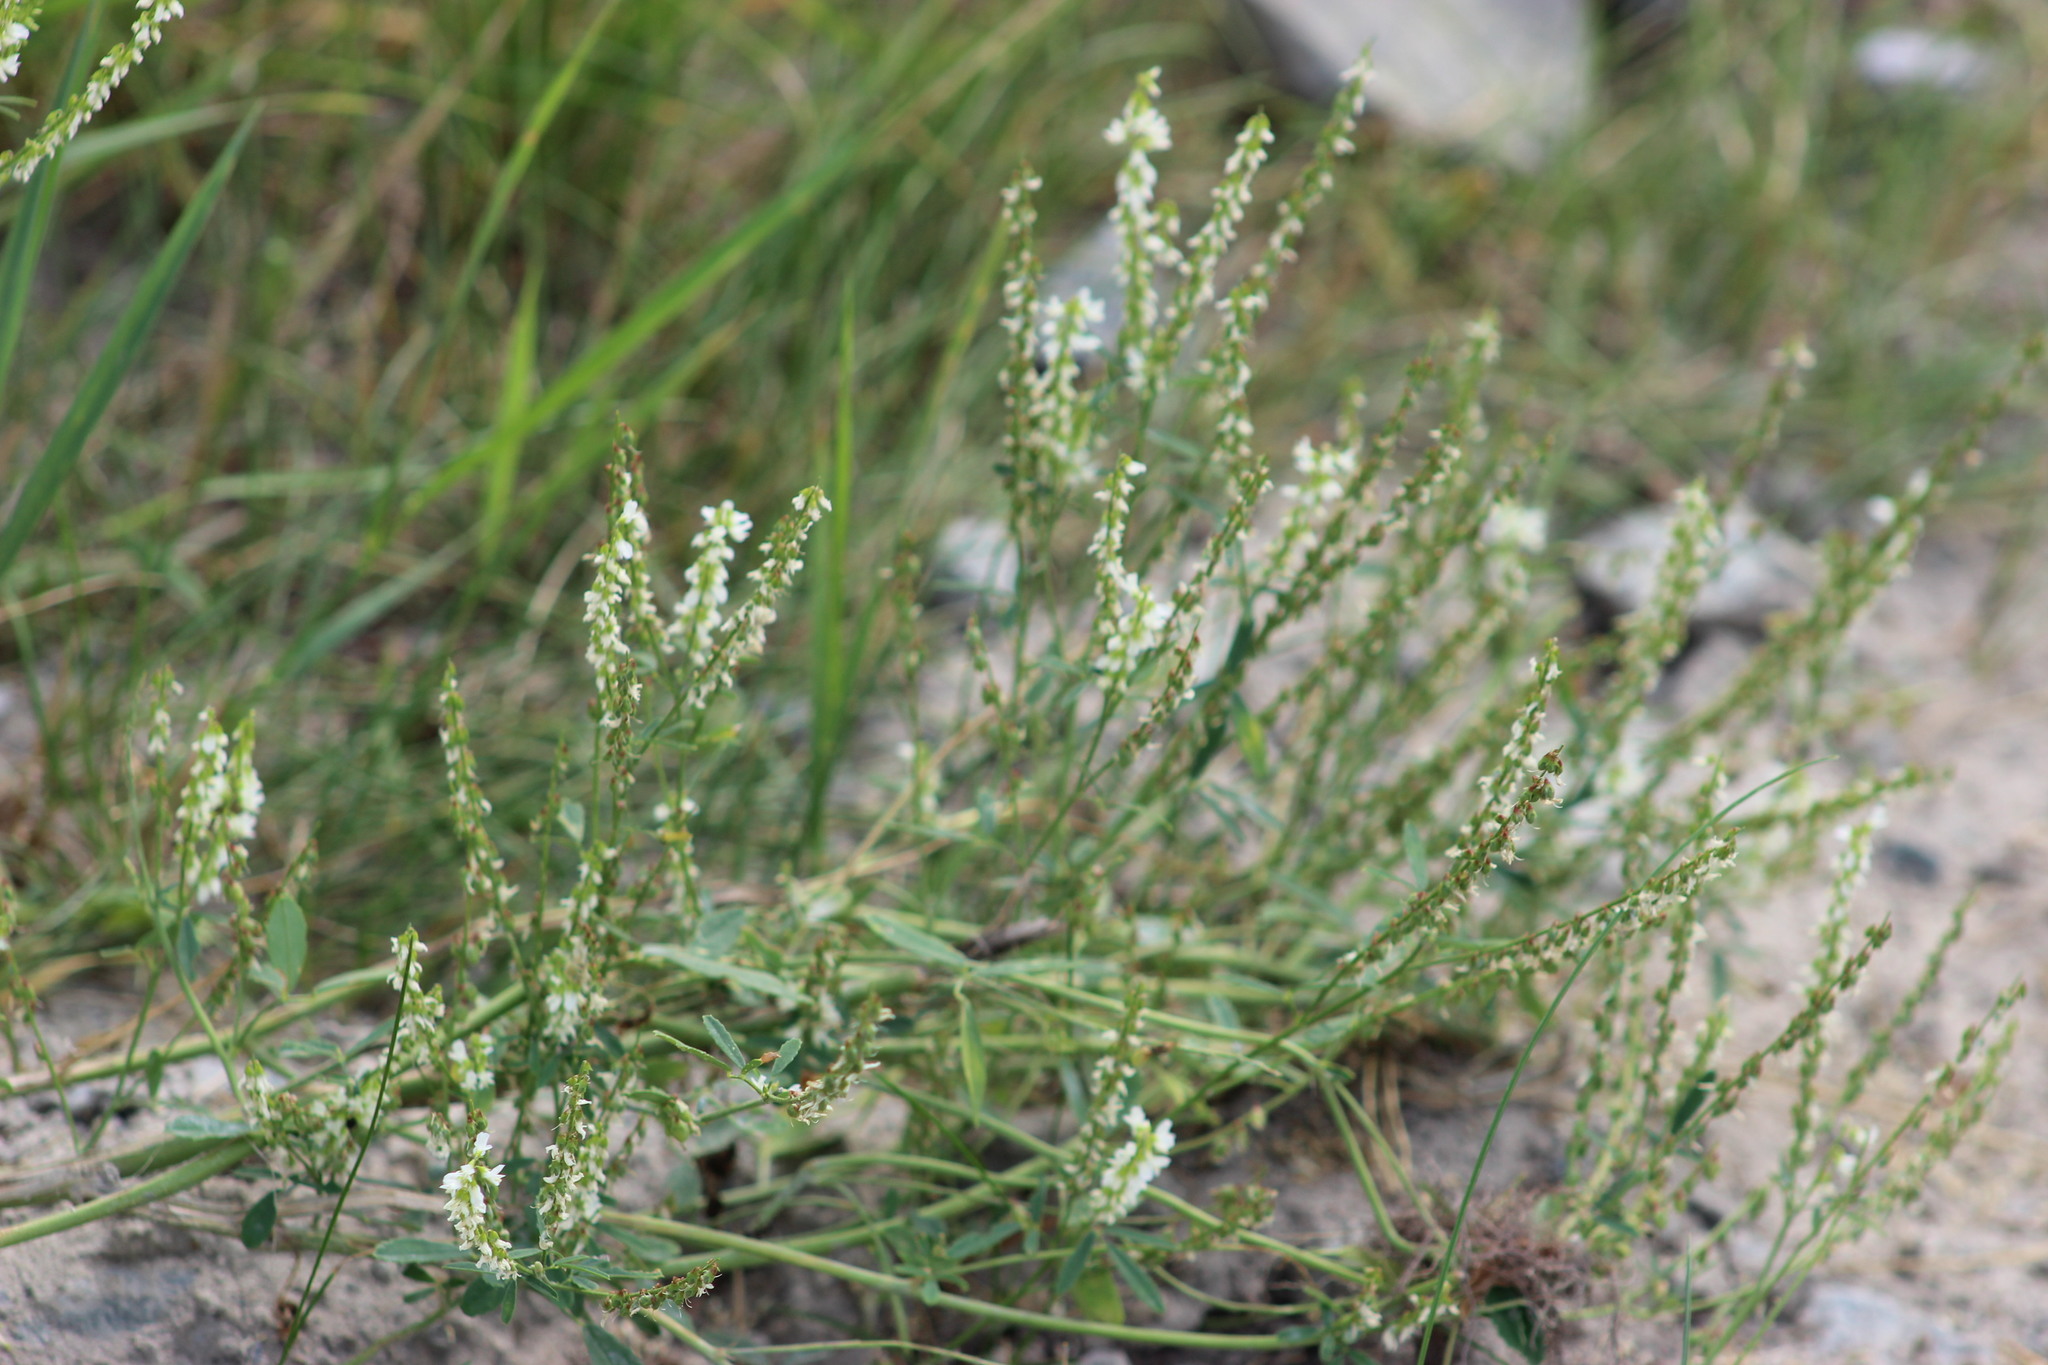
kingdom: Plantae
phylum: Tracheophyta
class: Magnoliopsida
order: Fabales
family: Fabaceae
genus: Melilotus
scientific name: Melilotus albus
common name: White melilot
